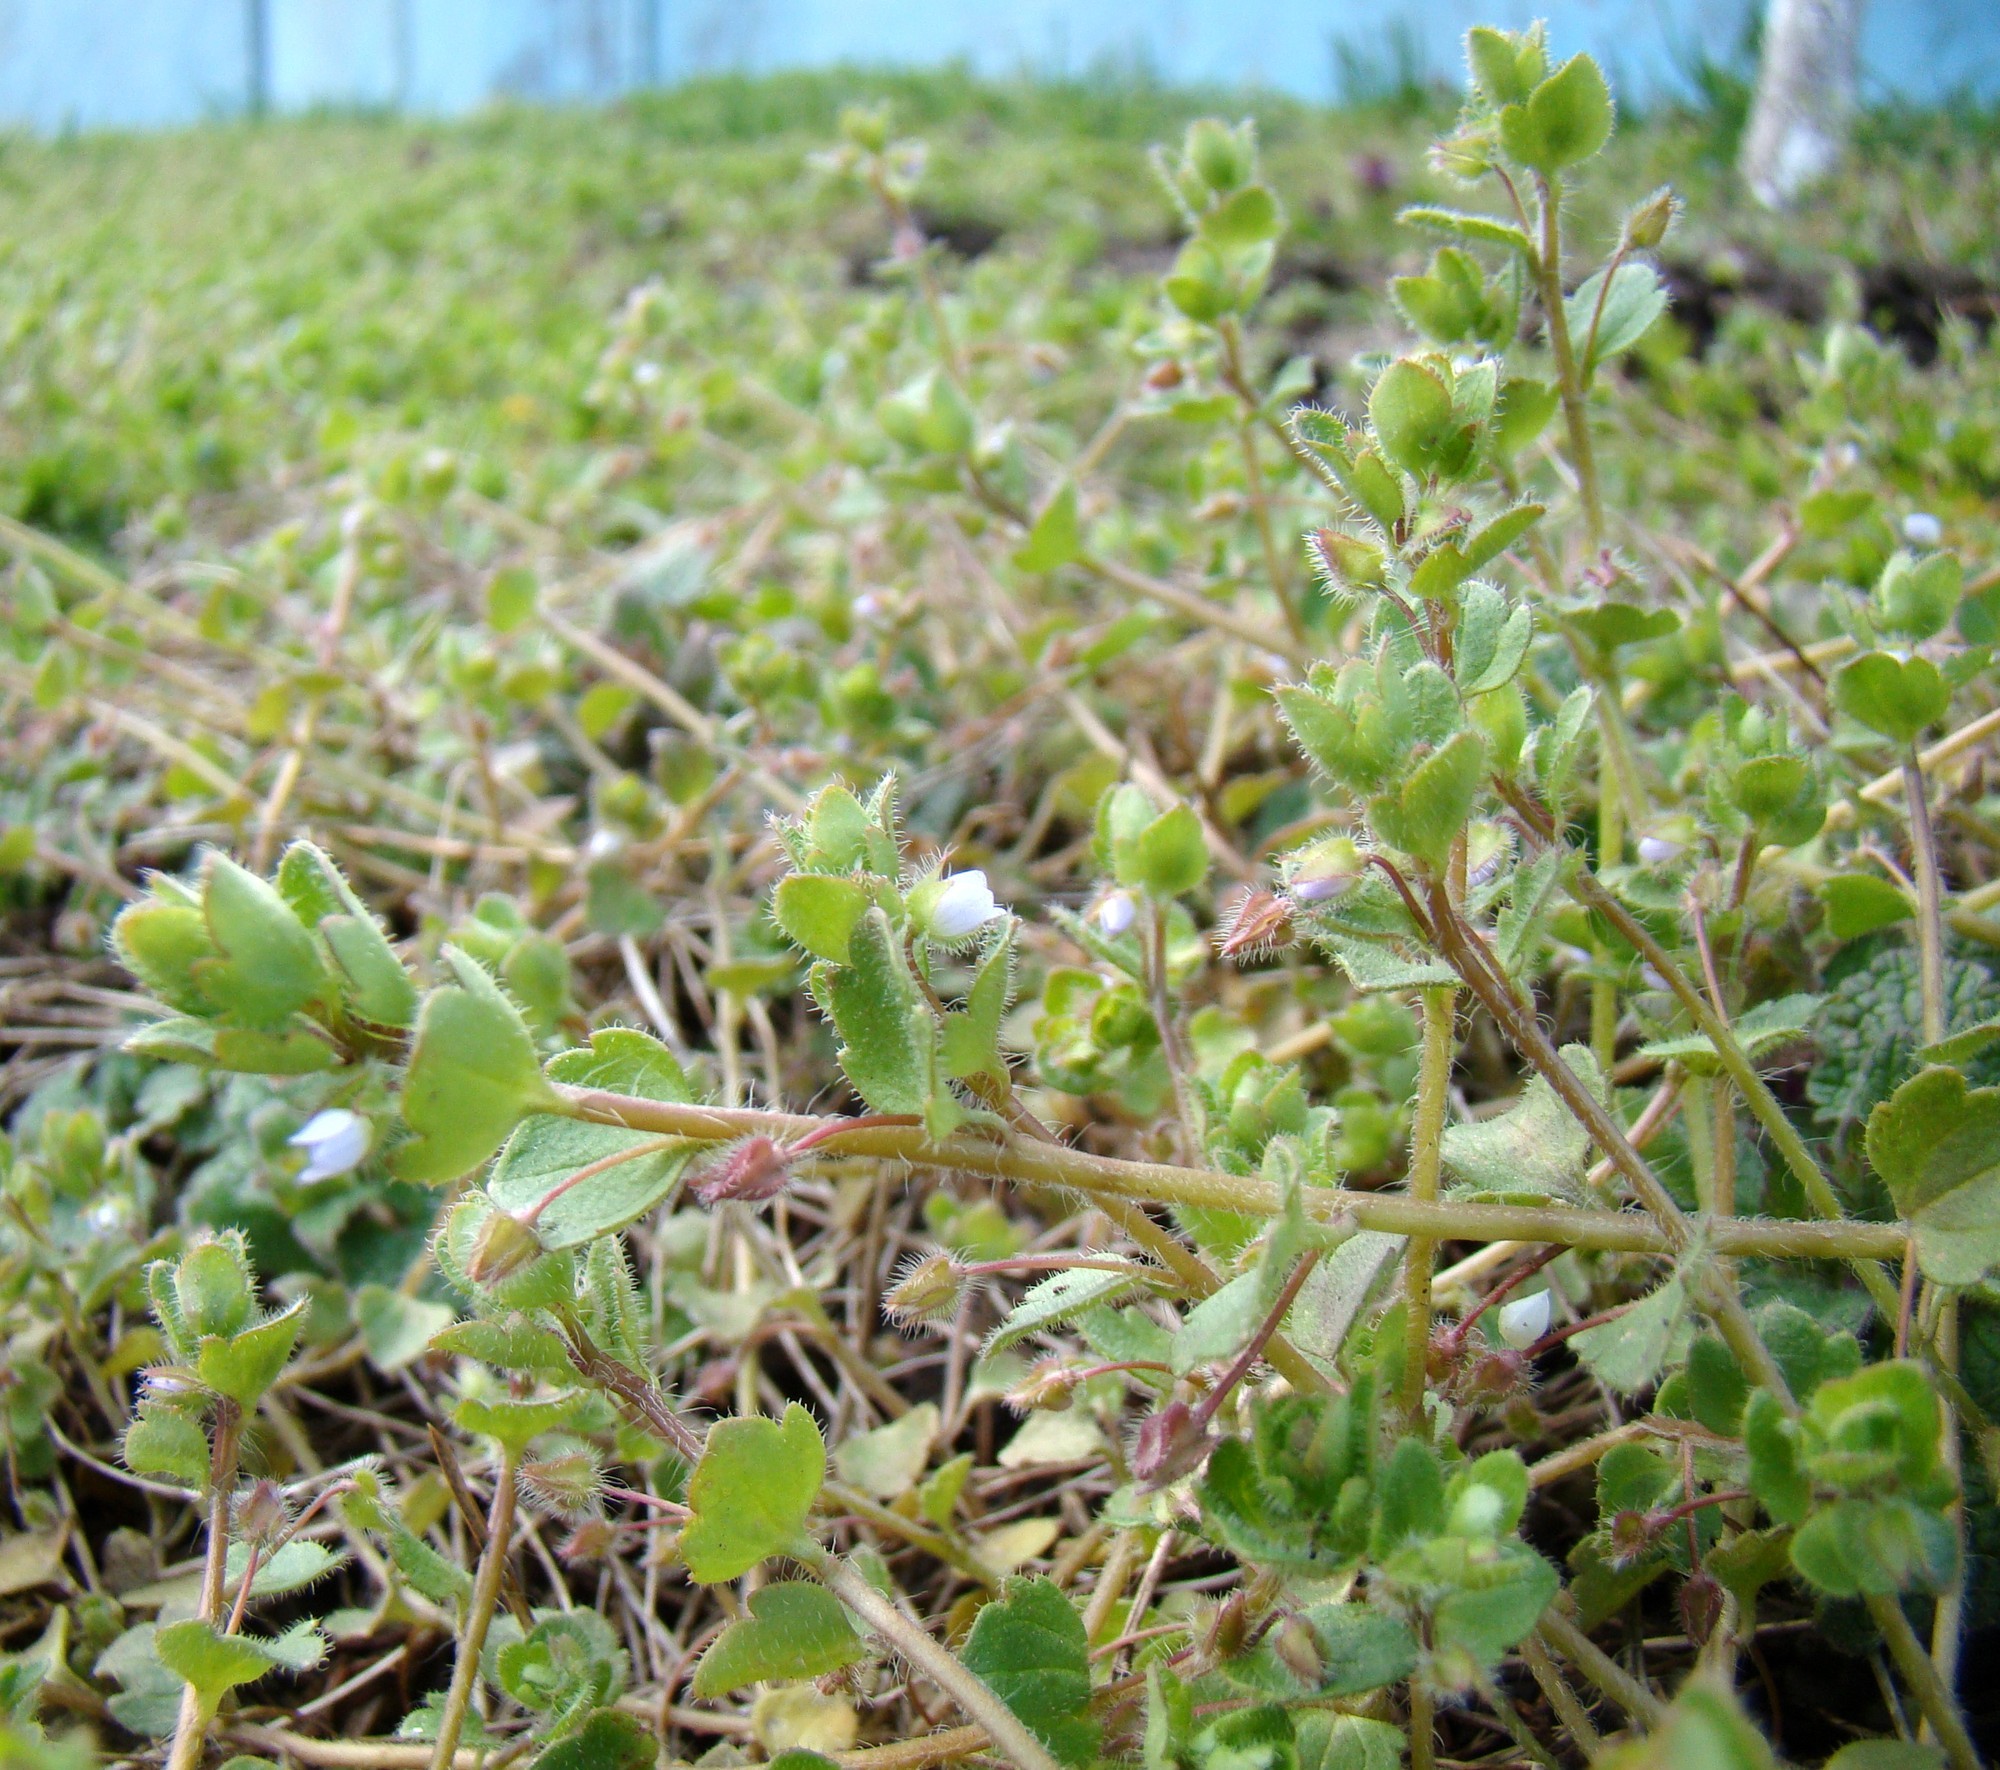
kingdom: Plantae
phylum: Tracheophyta
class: Magnoliopsida
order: Lamiales
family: Plantaginaceae
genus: Veronica
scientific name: Veronica hederifolia
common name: Ivy-leaved speedwell
